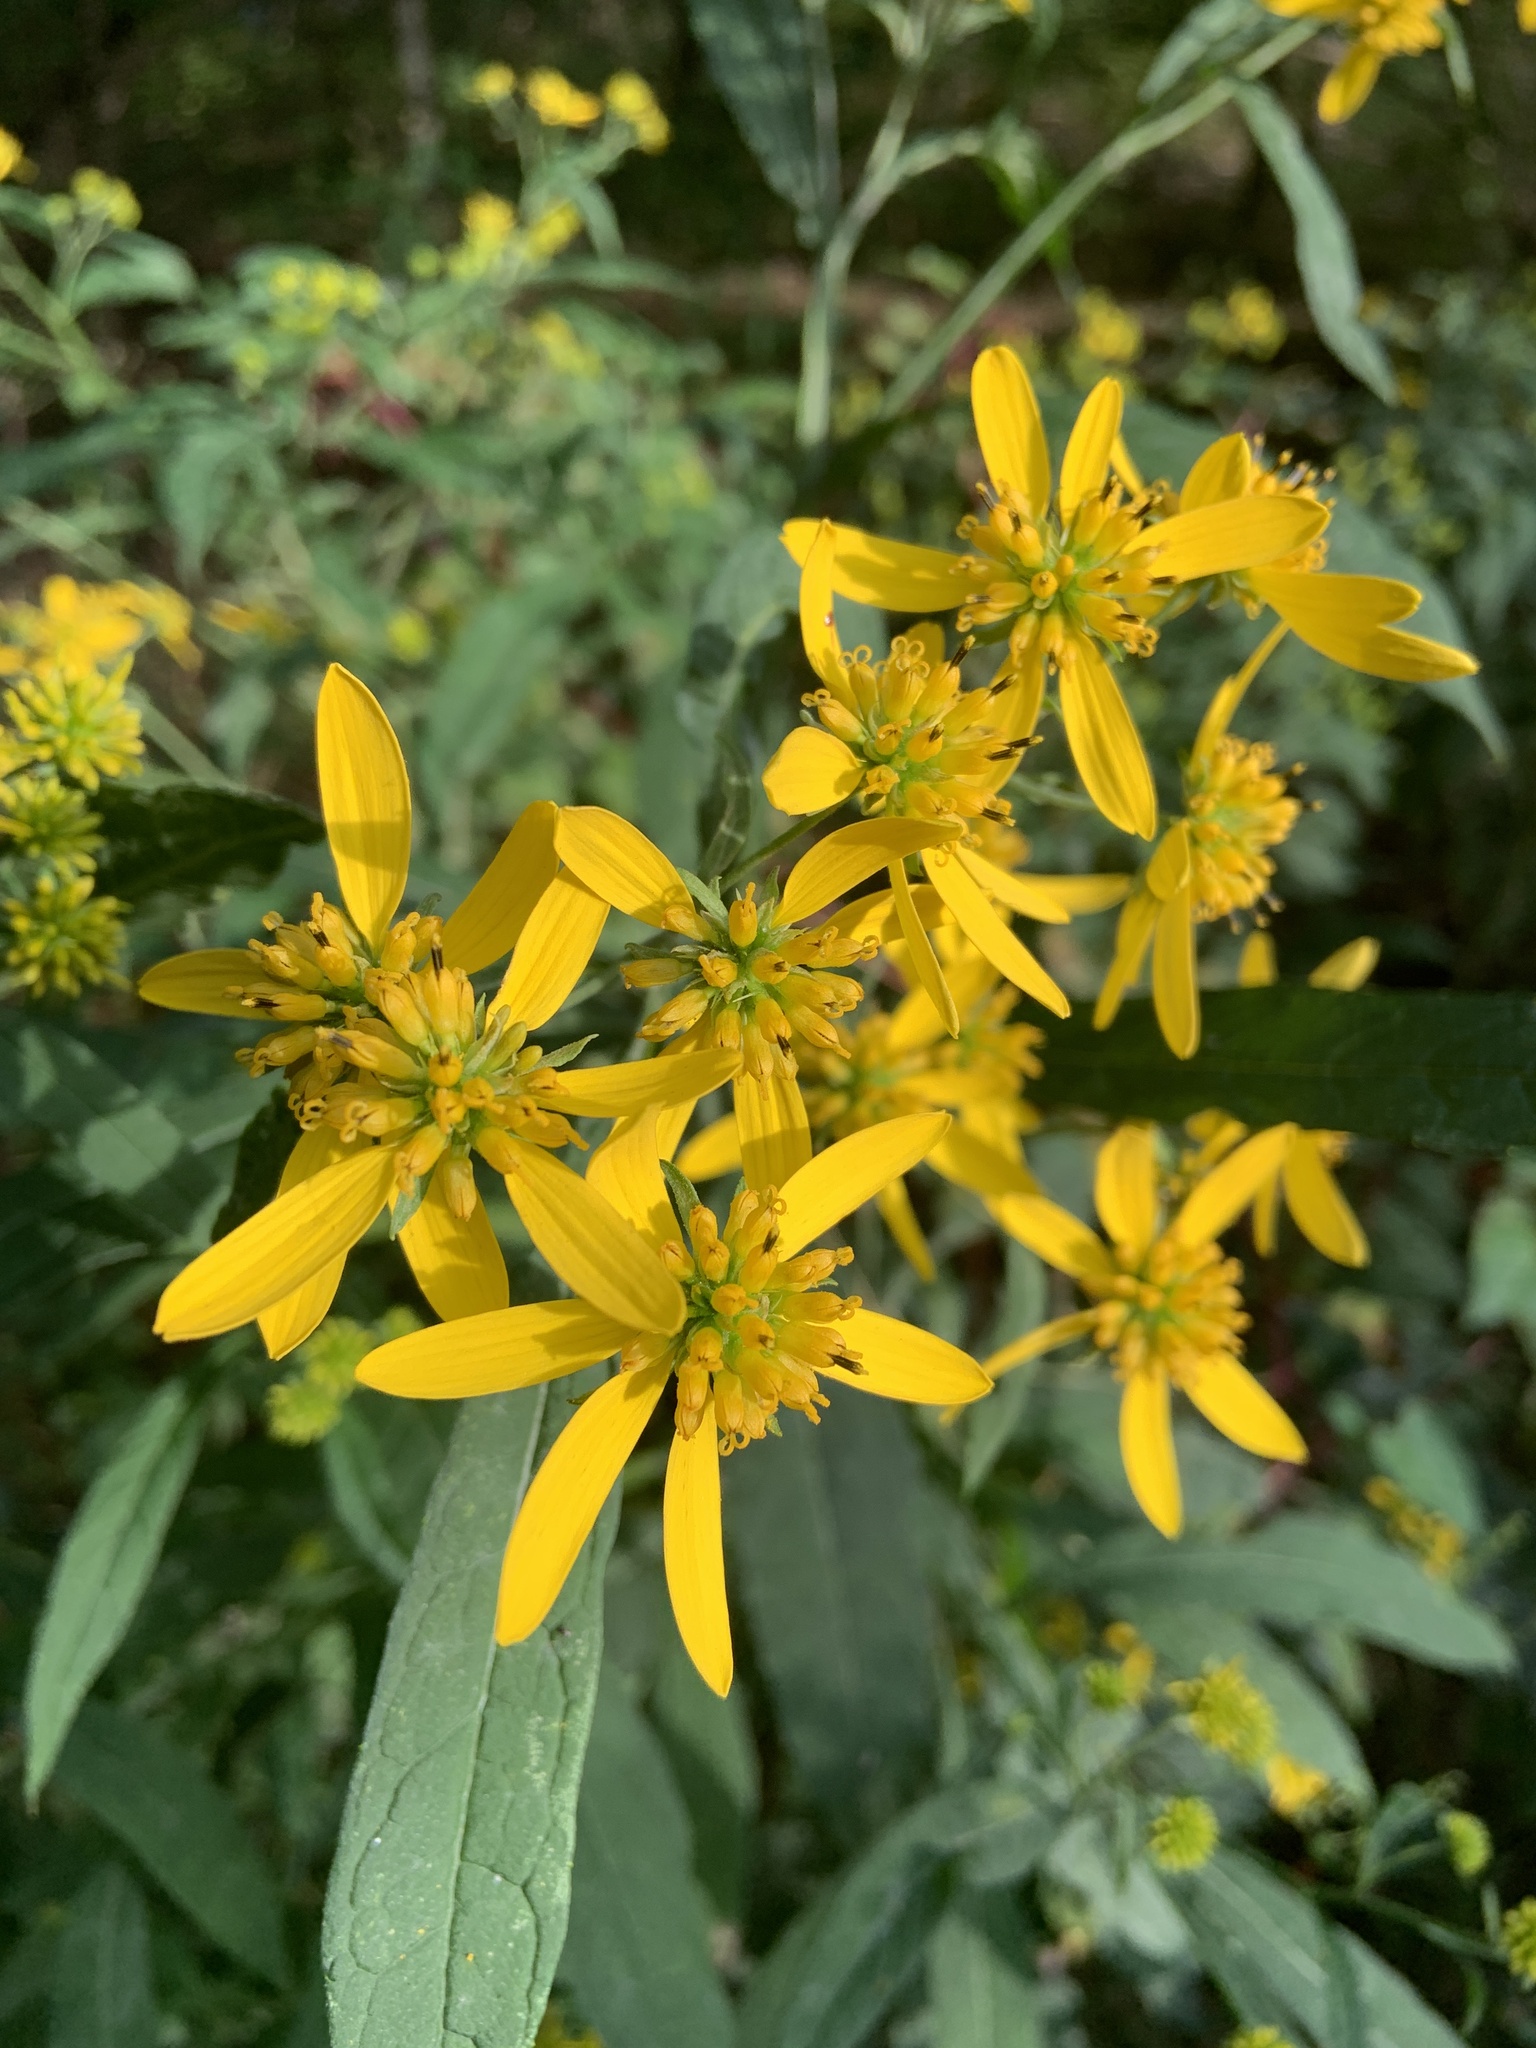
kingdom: Plantae
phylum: Tracheophyta
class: Magnoliopsida
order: Asterales
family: Asteraceae
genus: Verbesina
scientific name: Verbesina alternifolia
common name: Wingstem
